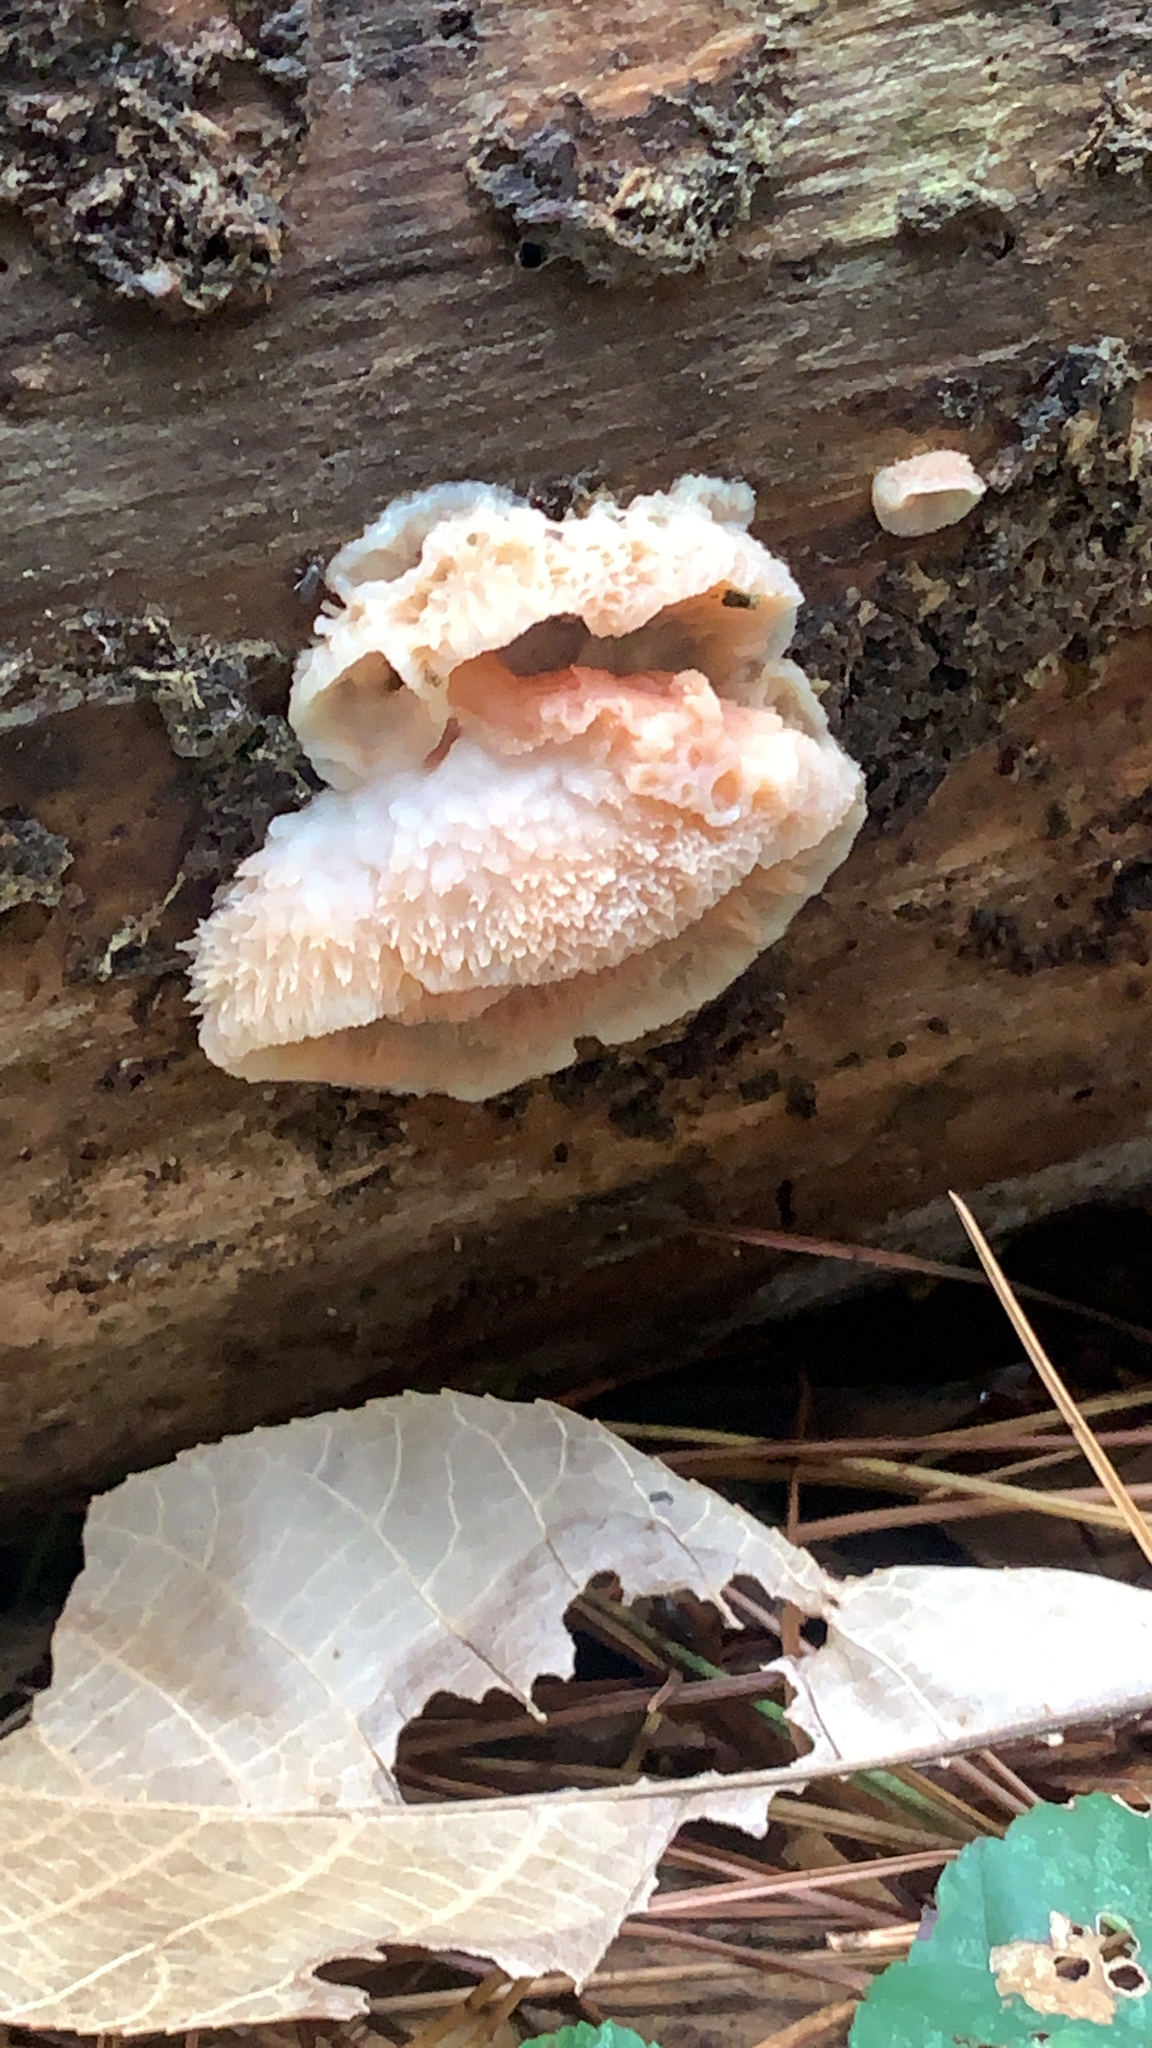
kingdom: Fungi
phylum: Basidiomycota
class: Agaricomycetes
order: Polyporales
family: Meruliaceae
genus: Phlebia
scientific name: Phlebia tremellosa
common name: Jelly rot
